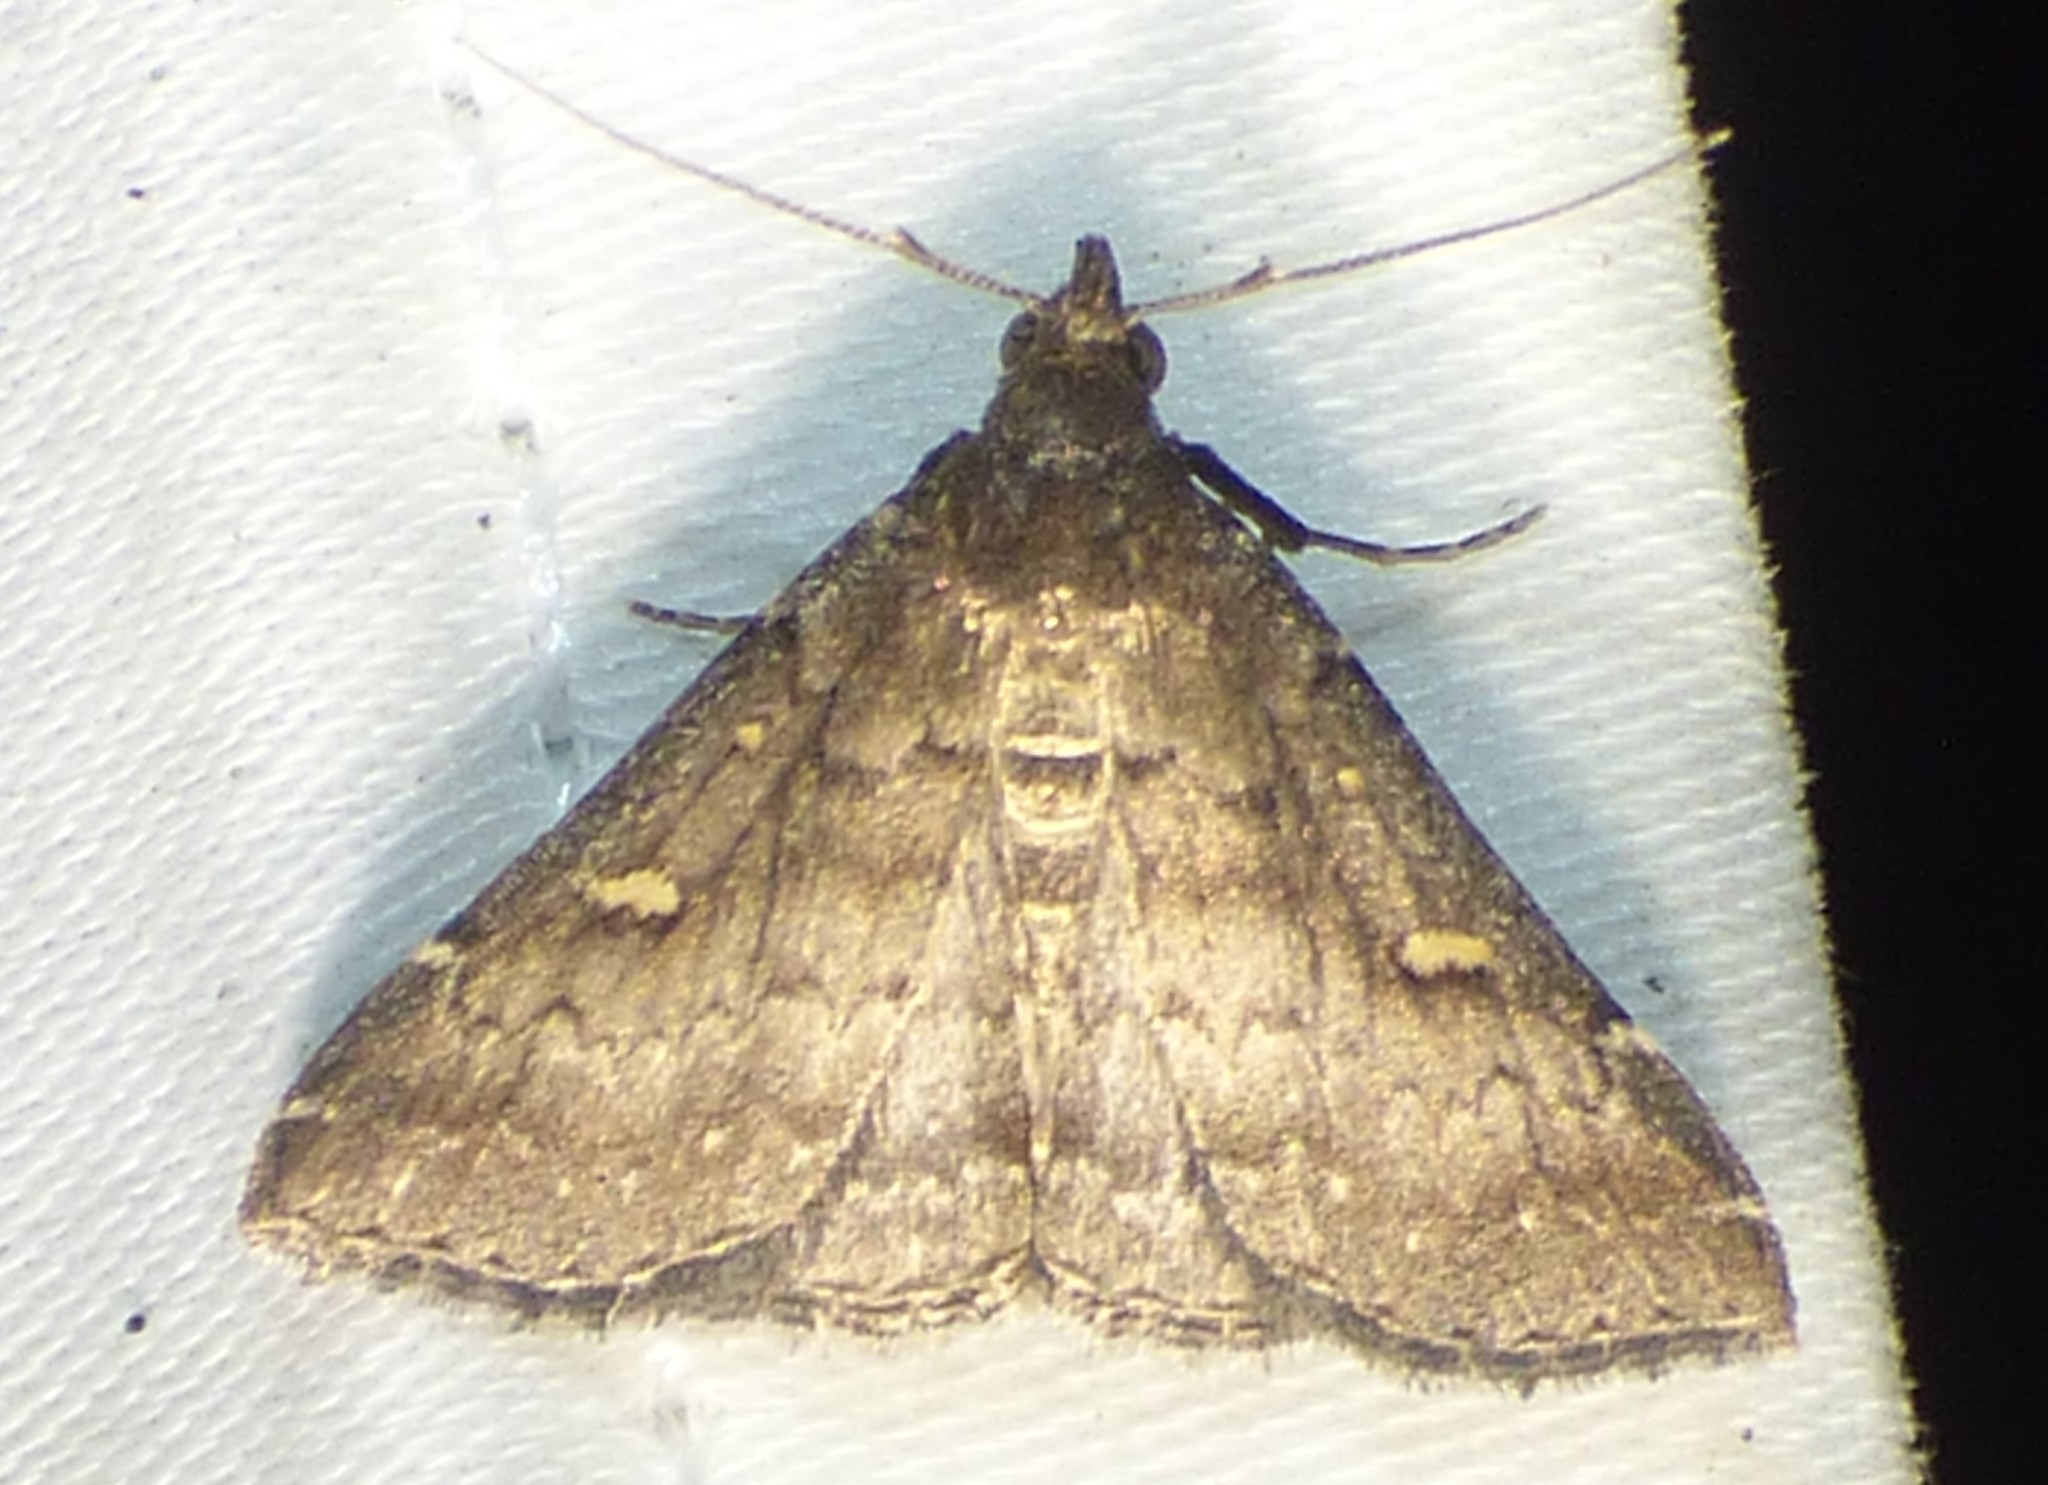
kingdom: Animalia
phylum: Arthropoda
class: Insecta
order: Lepidoptera
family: Erebidae
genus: Tetanolita
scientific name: Tetanolita mynesalis
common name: Smoky tetanolita moth
